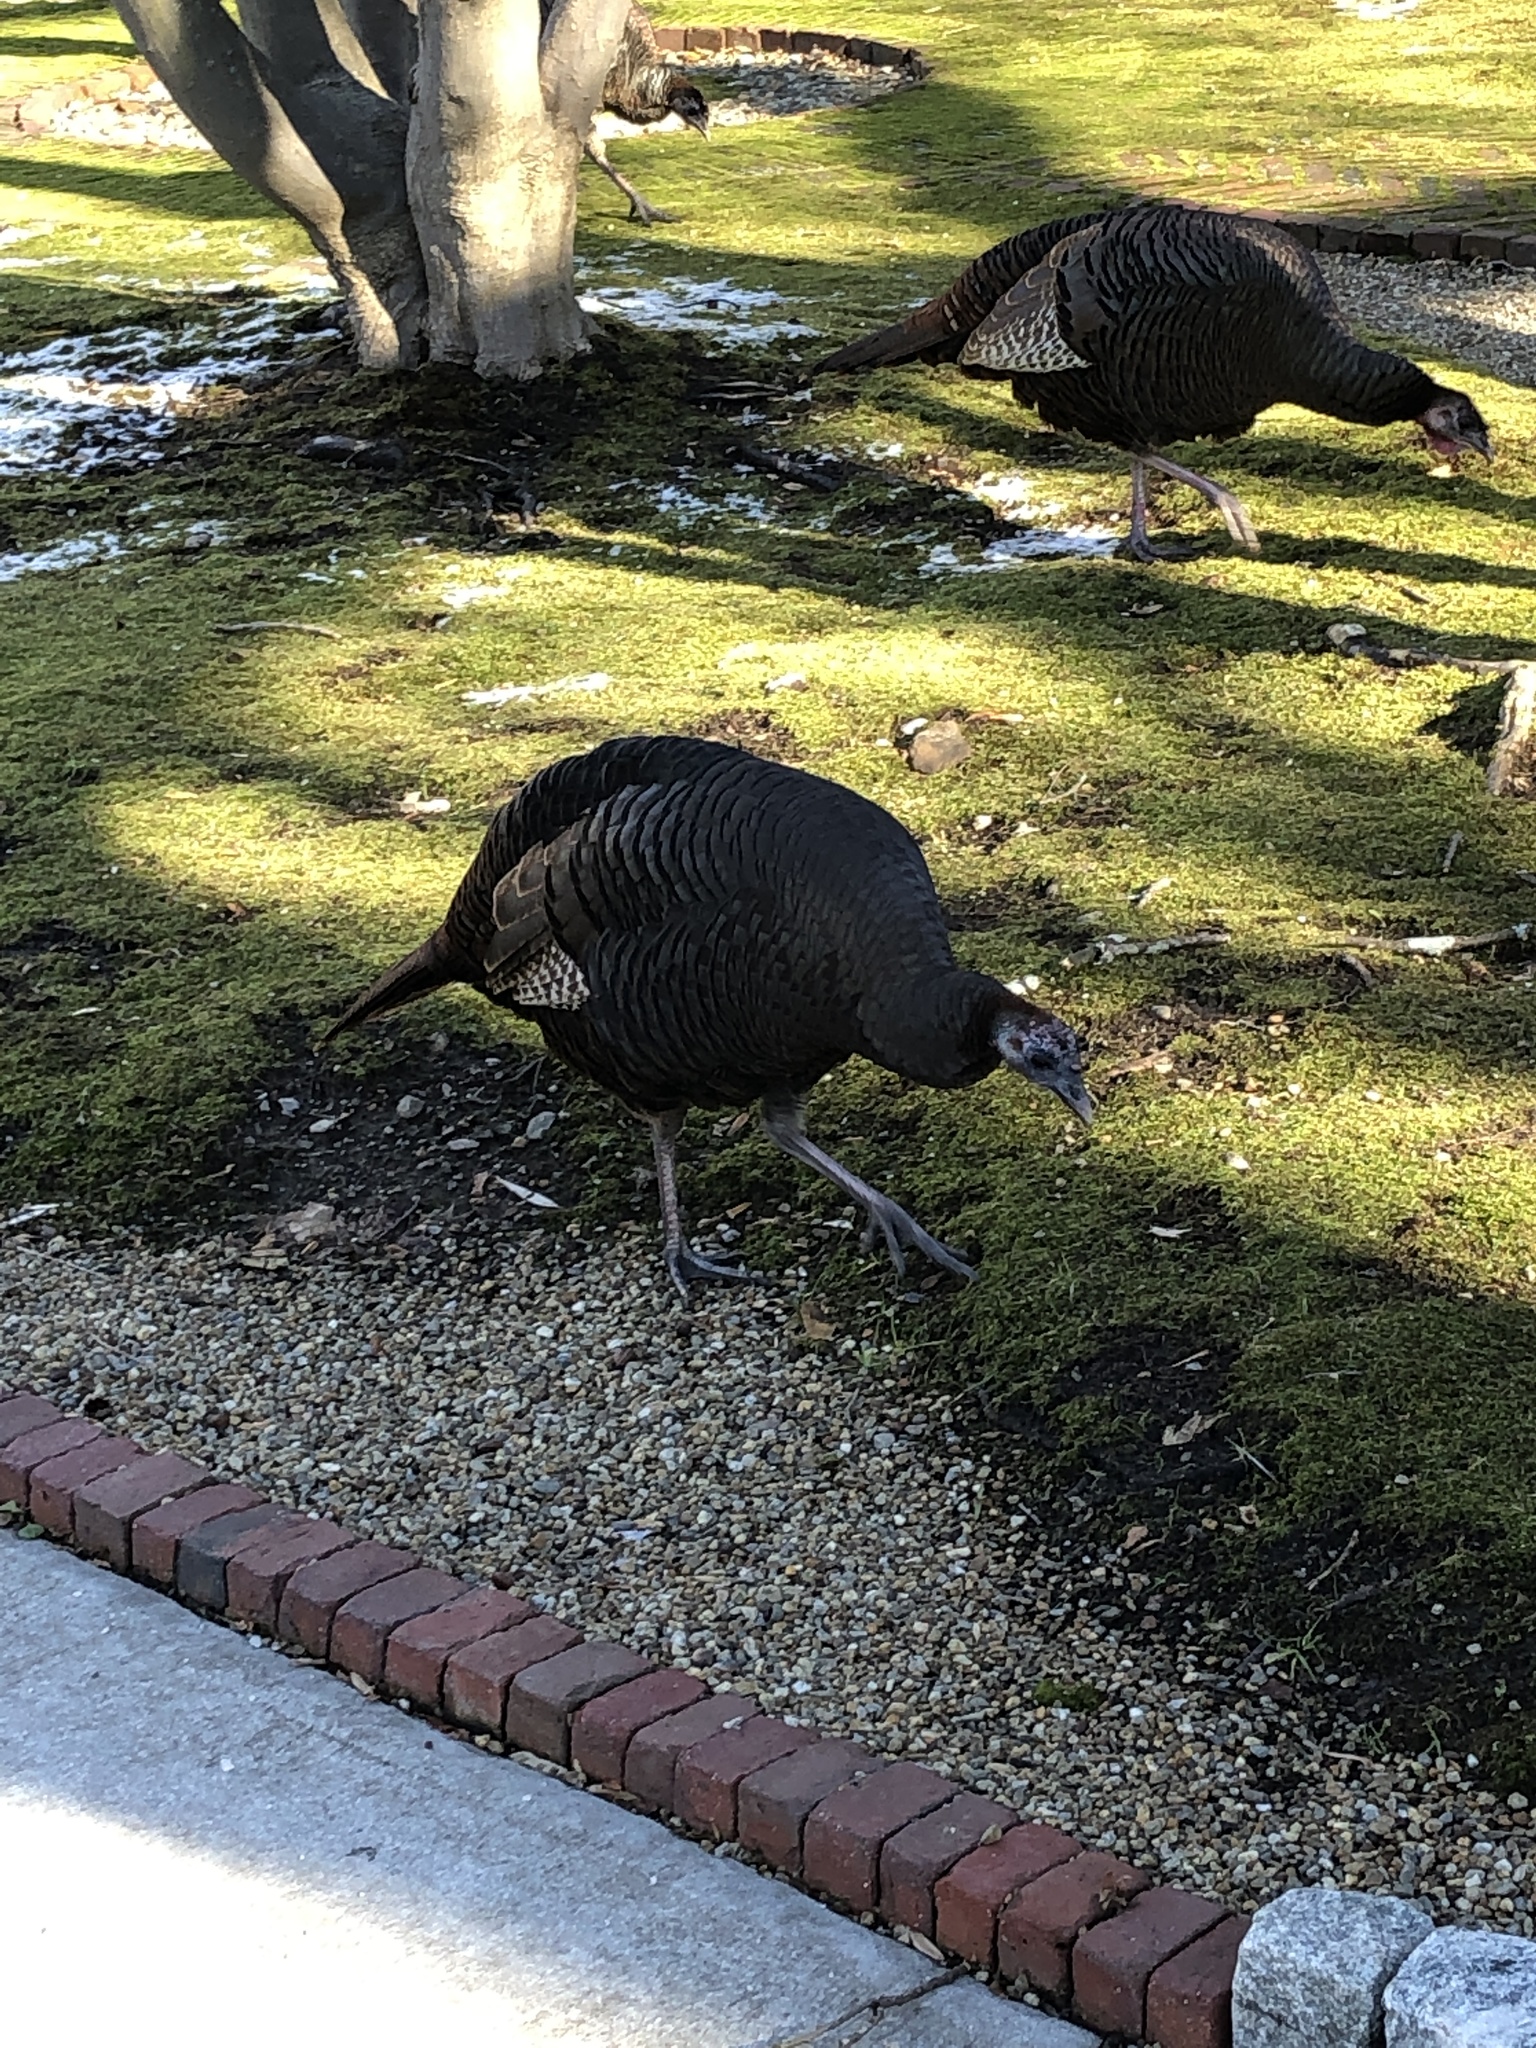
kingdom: Animalia
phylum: Chordata
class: Aves
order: Galliformes
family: Phasianidae
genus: Meleagris
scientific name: Meleagris gallopavo
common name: Wild turkey
